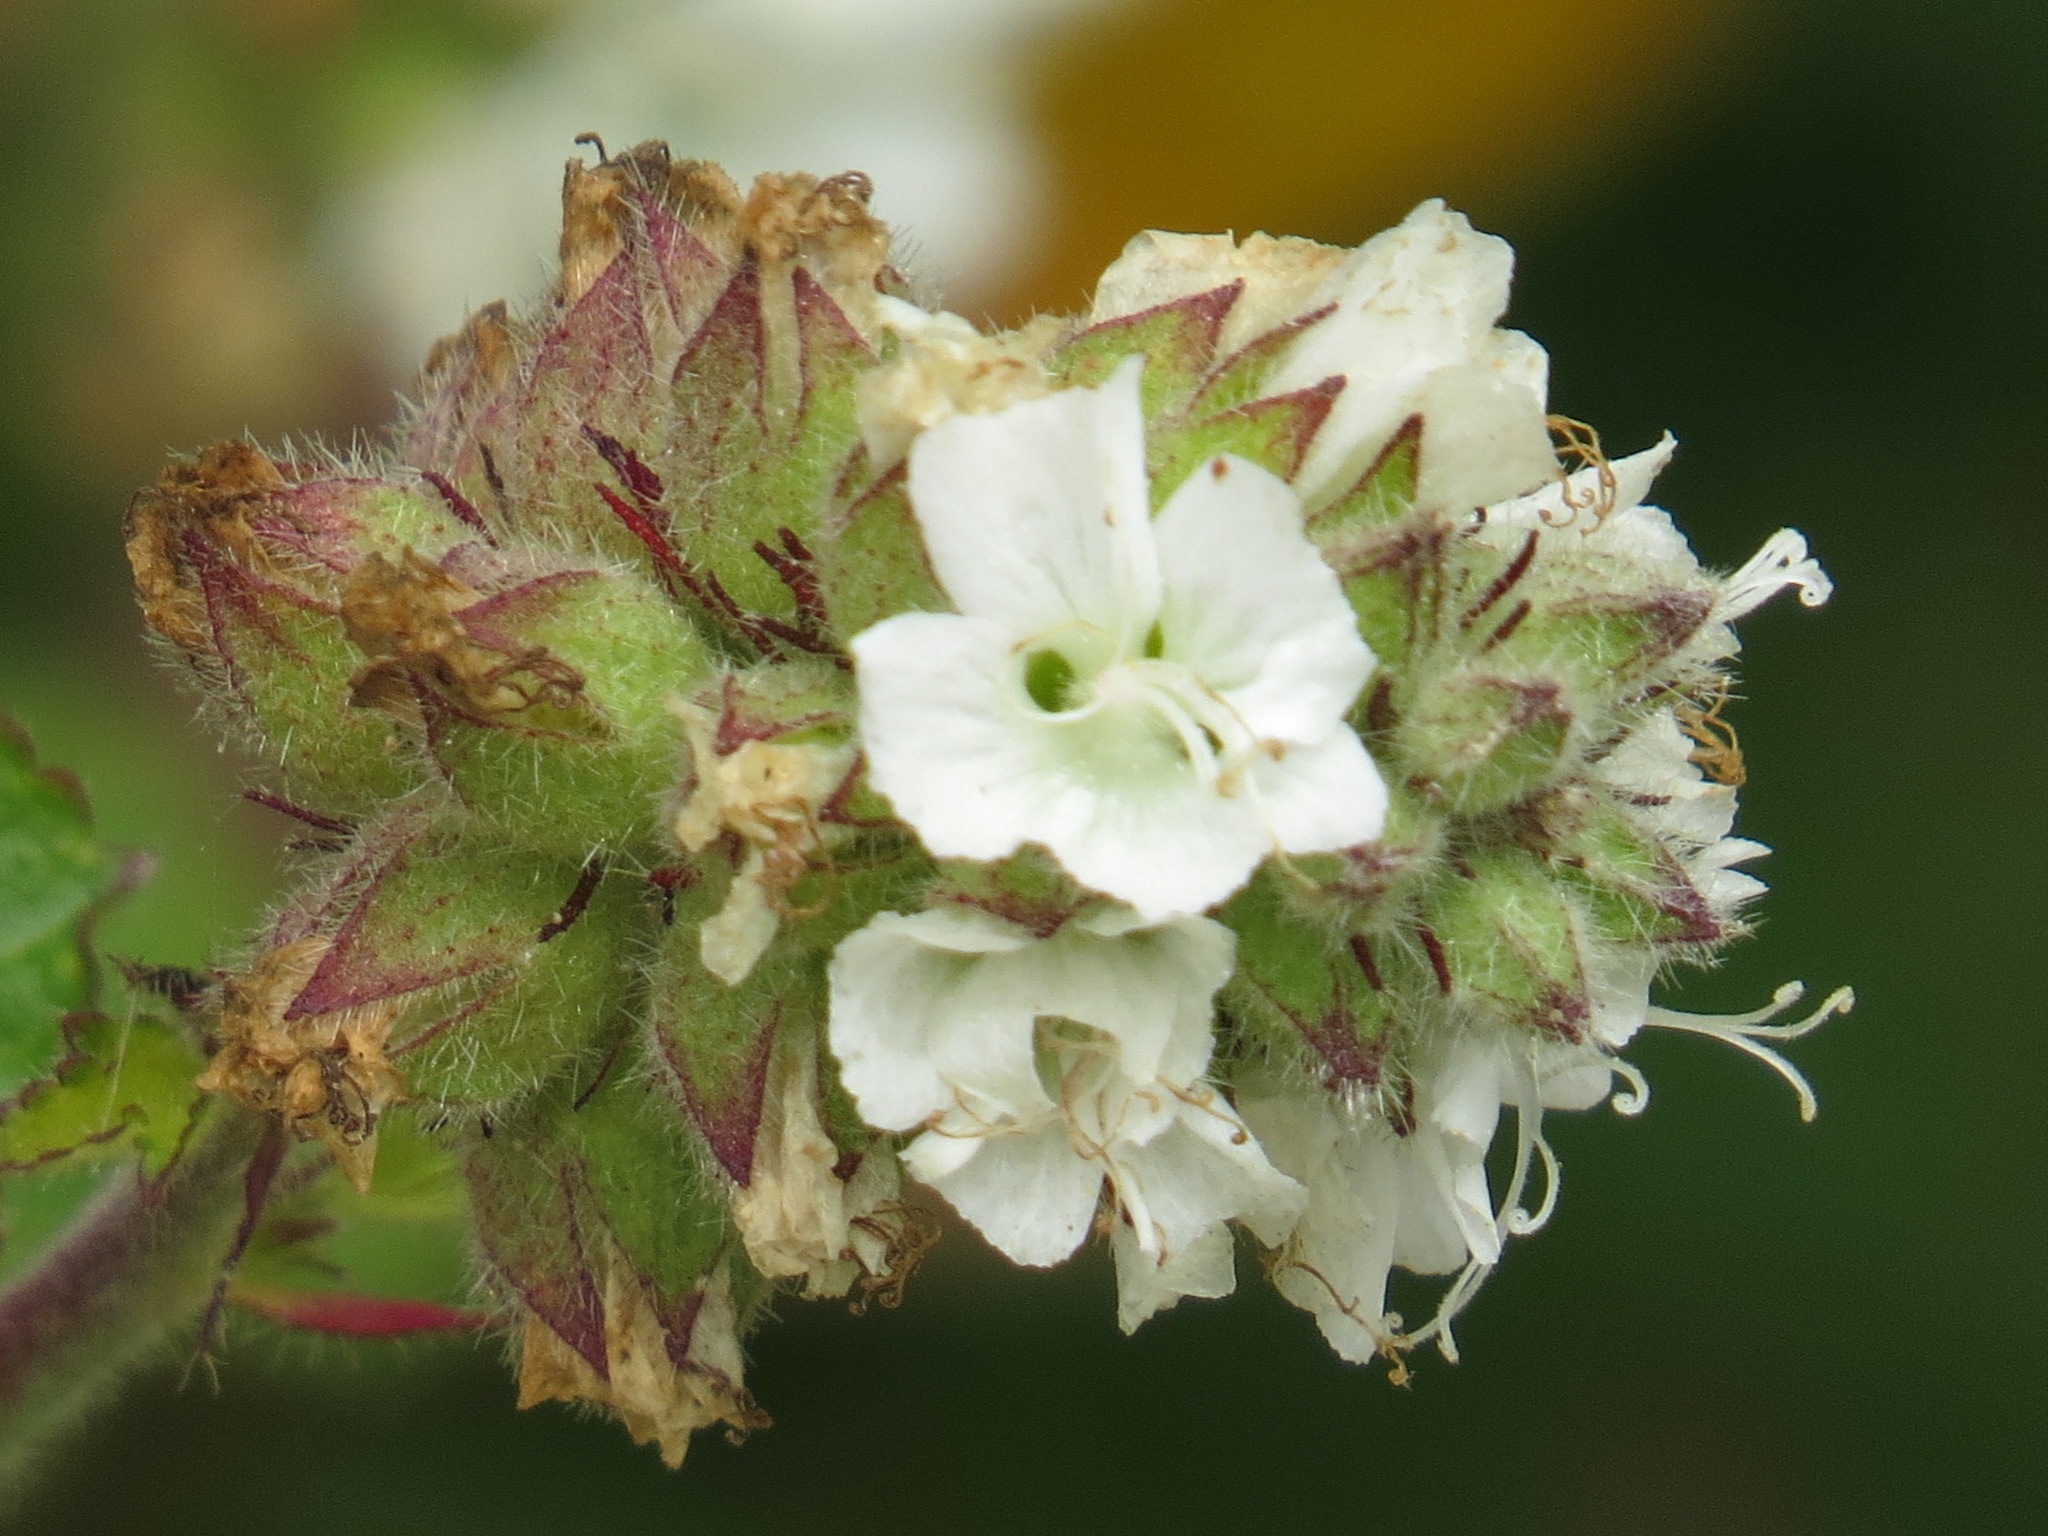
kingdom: Plantae
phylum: Tracheophyta
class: Magnoliopsida
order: Boraginales
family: Hydrophyllaceae
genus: Phacelia
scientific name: Phacelia malvifolia
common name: Mallow-leaf phacelia
